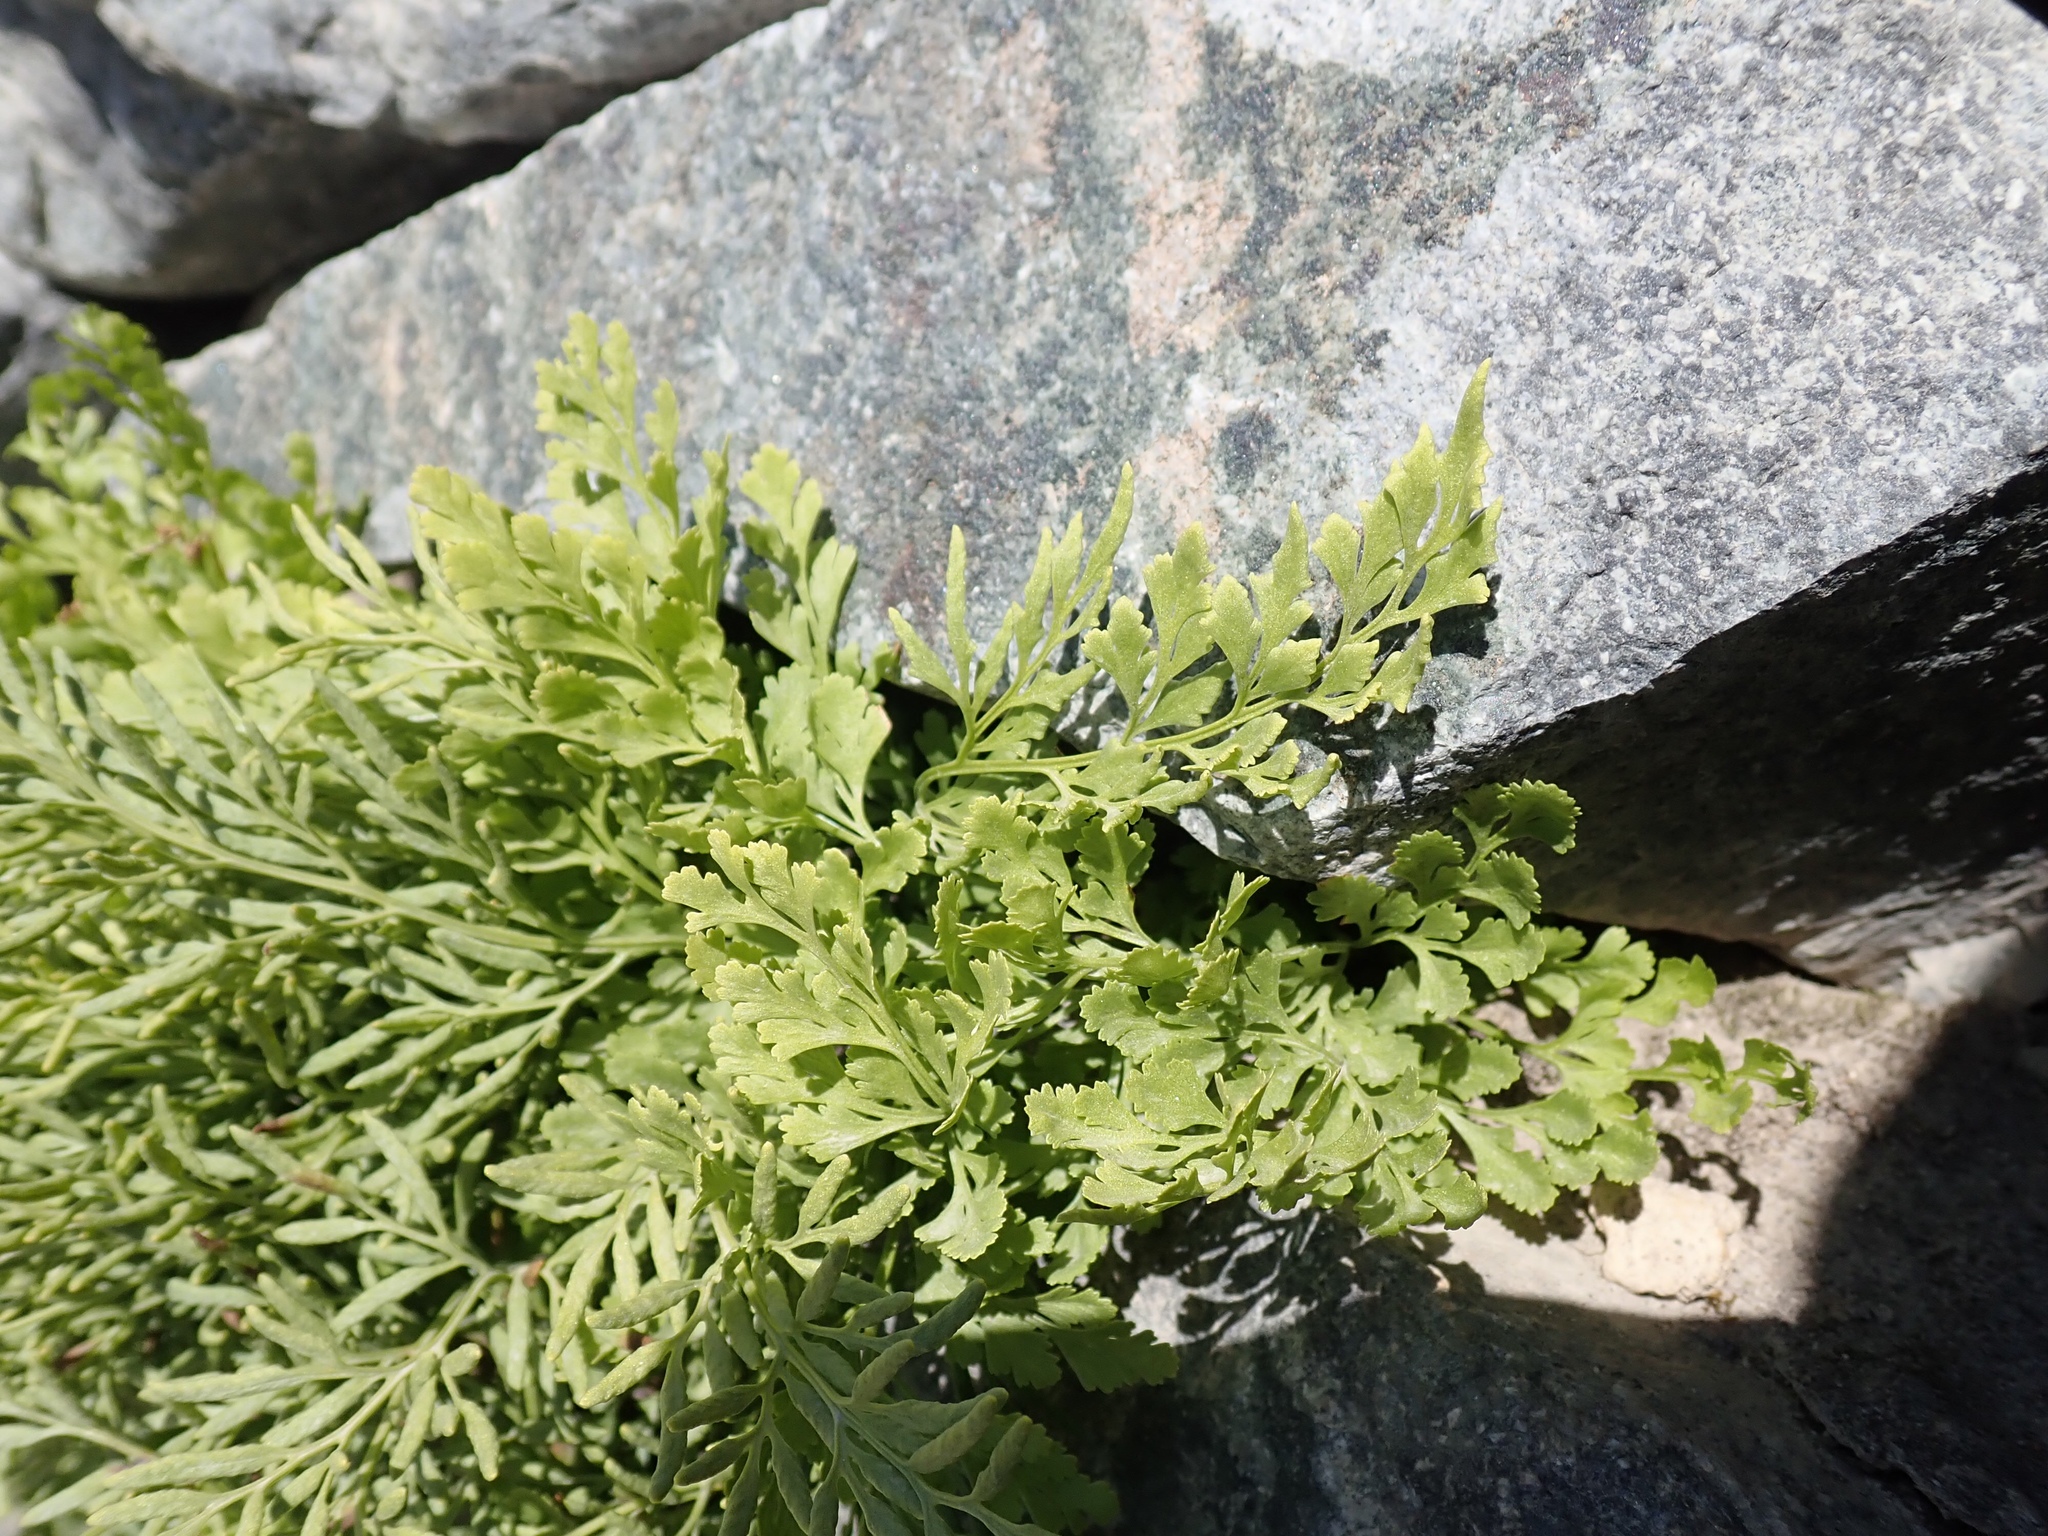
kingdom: Plantae
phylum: Tracheophyta
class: Polypodiopsida
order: Polypodiales
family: Pteridaceae
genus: Cryptogramma
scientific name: Cryptogramma cascadensis
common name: Cascade parsley fern
